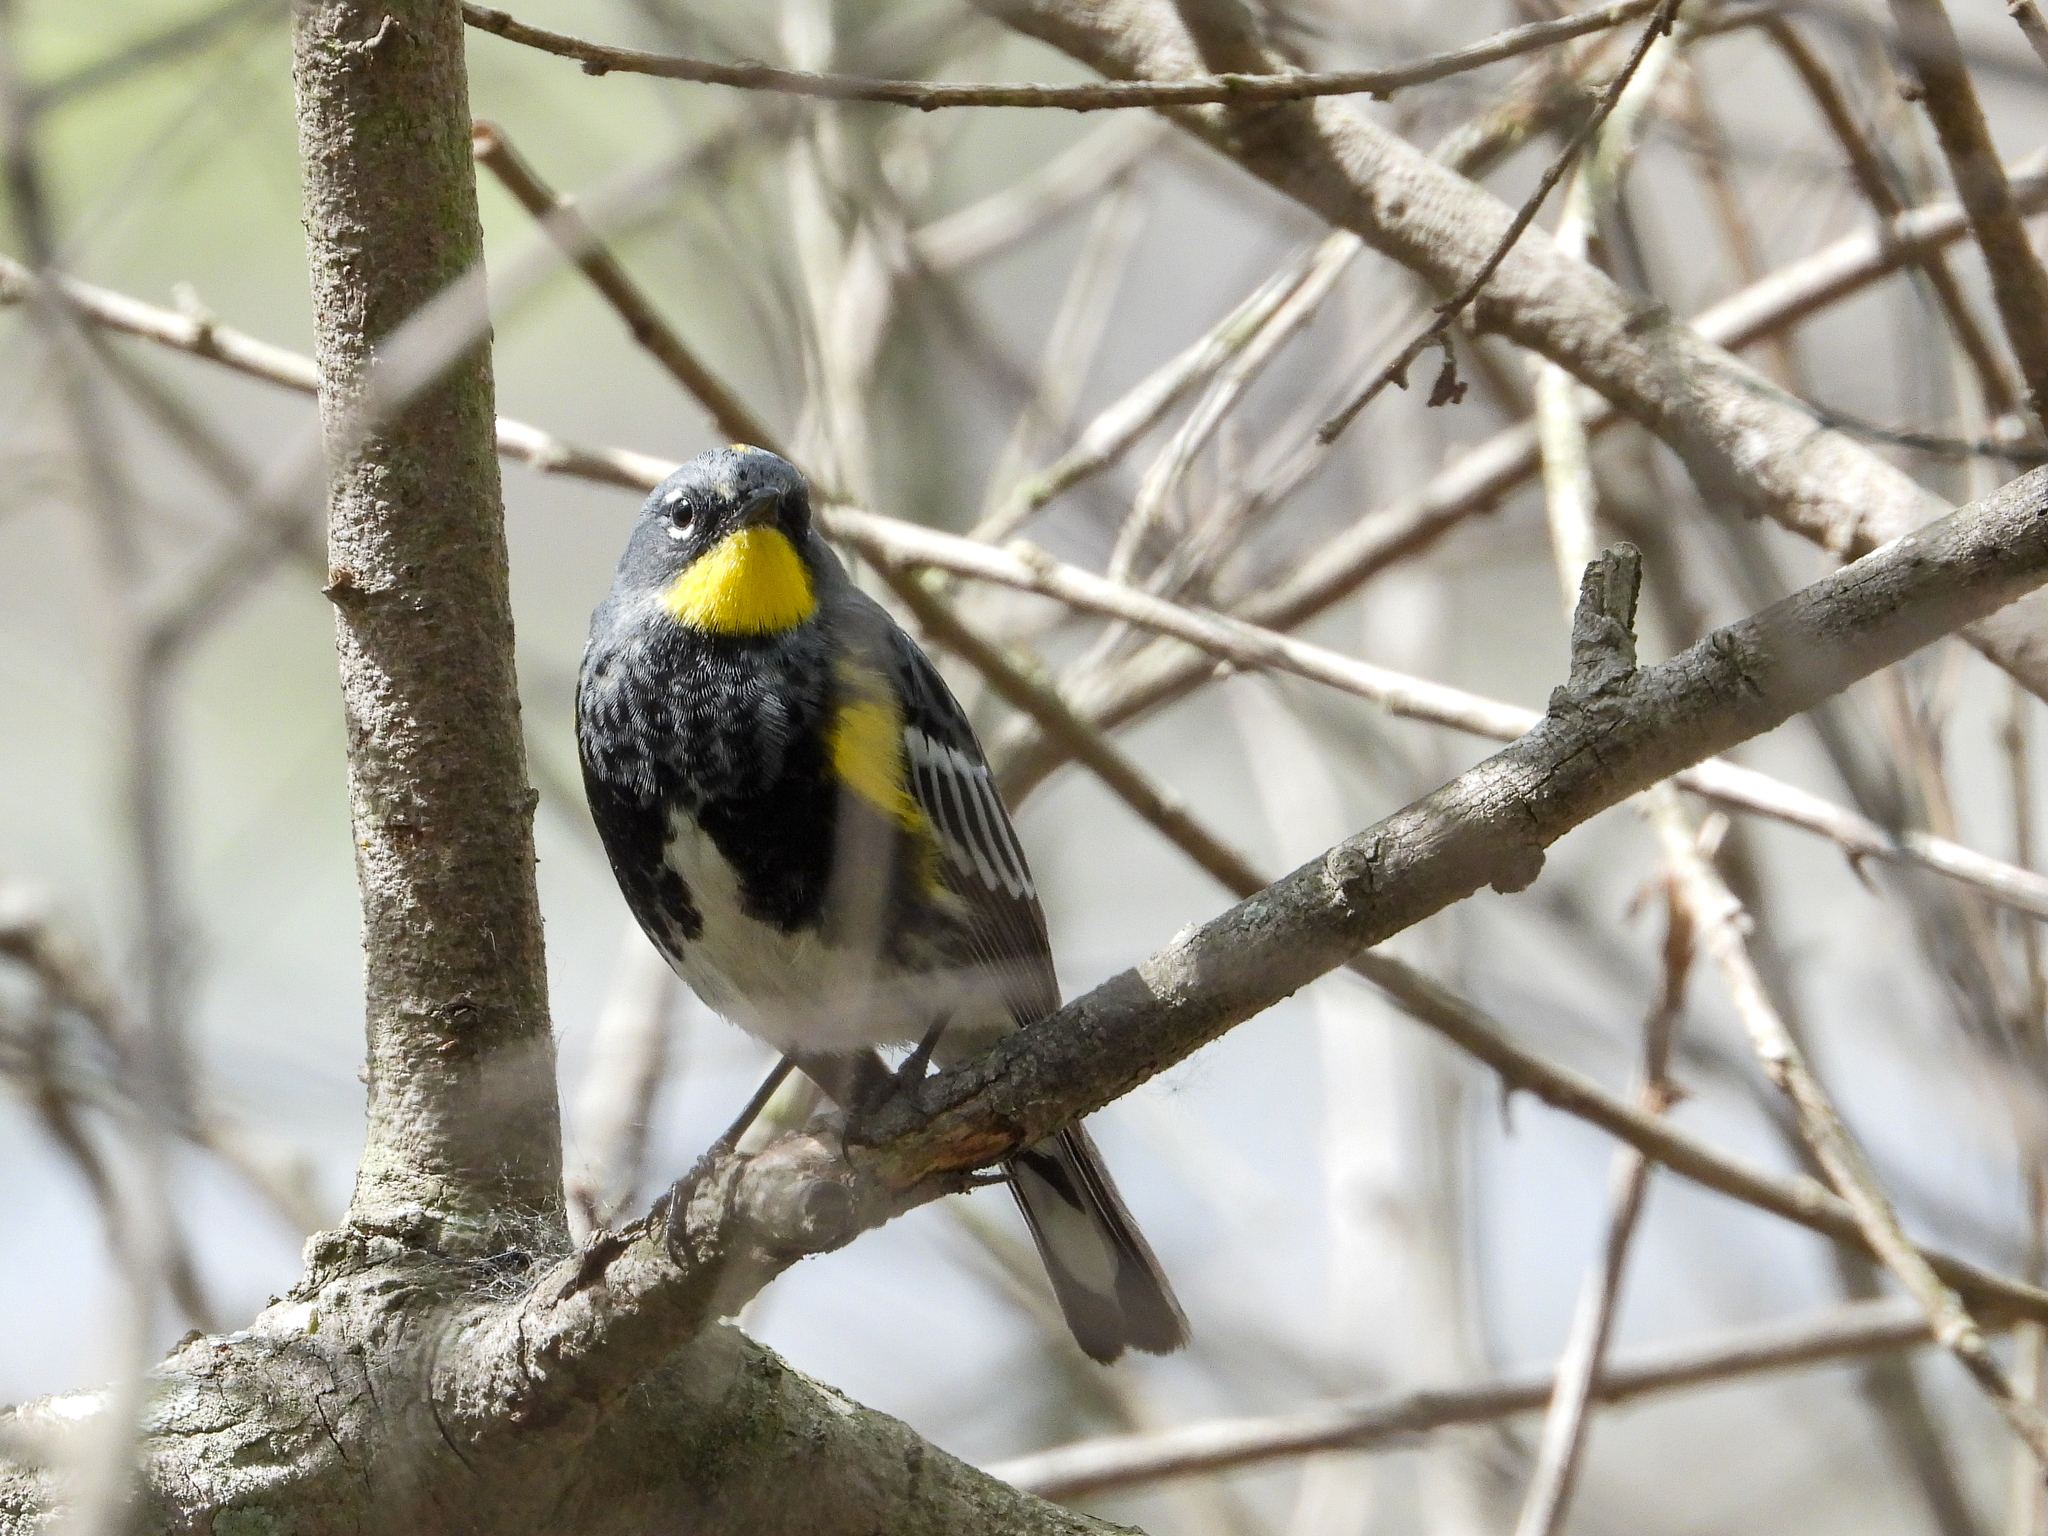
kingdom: Animalia
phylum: Chordata
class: Aves
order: Passeriformes
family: Parulidae
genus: Setophaga
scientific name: Setophaga auduboni
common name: Audubon's warbler
